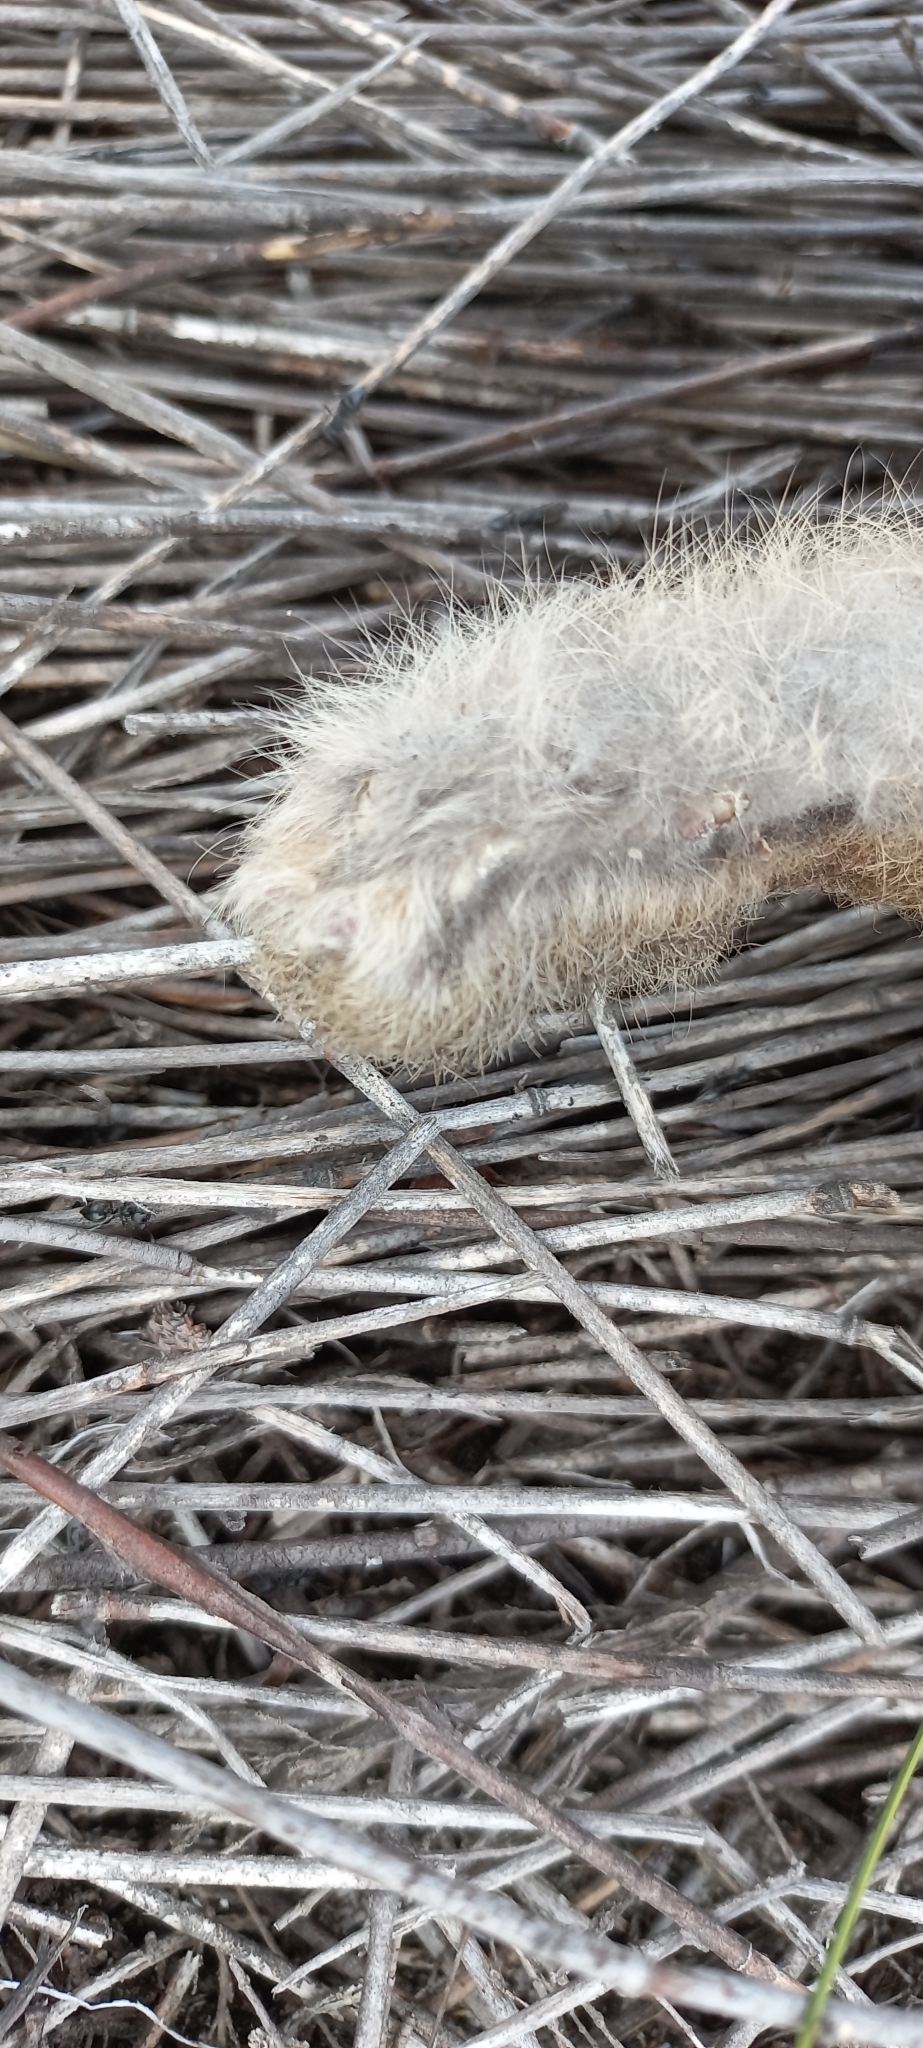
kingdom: Animalia
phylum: Chordata
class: Mammalia
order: Lagomorpha
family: Leporidae
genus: Pronolagus
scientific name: Pronolagus saundersiae
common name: Hewitt's red rock hare
